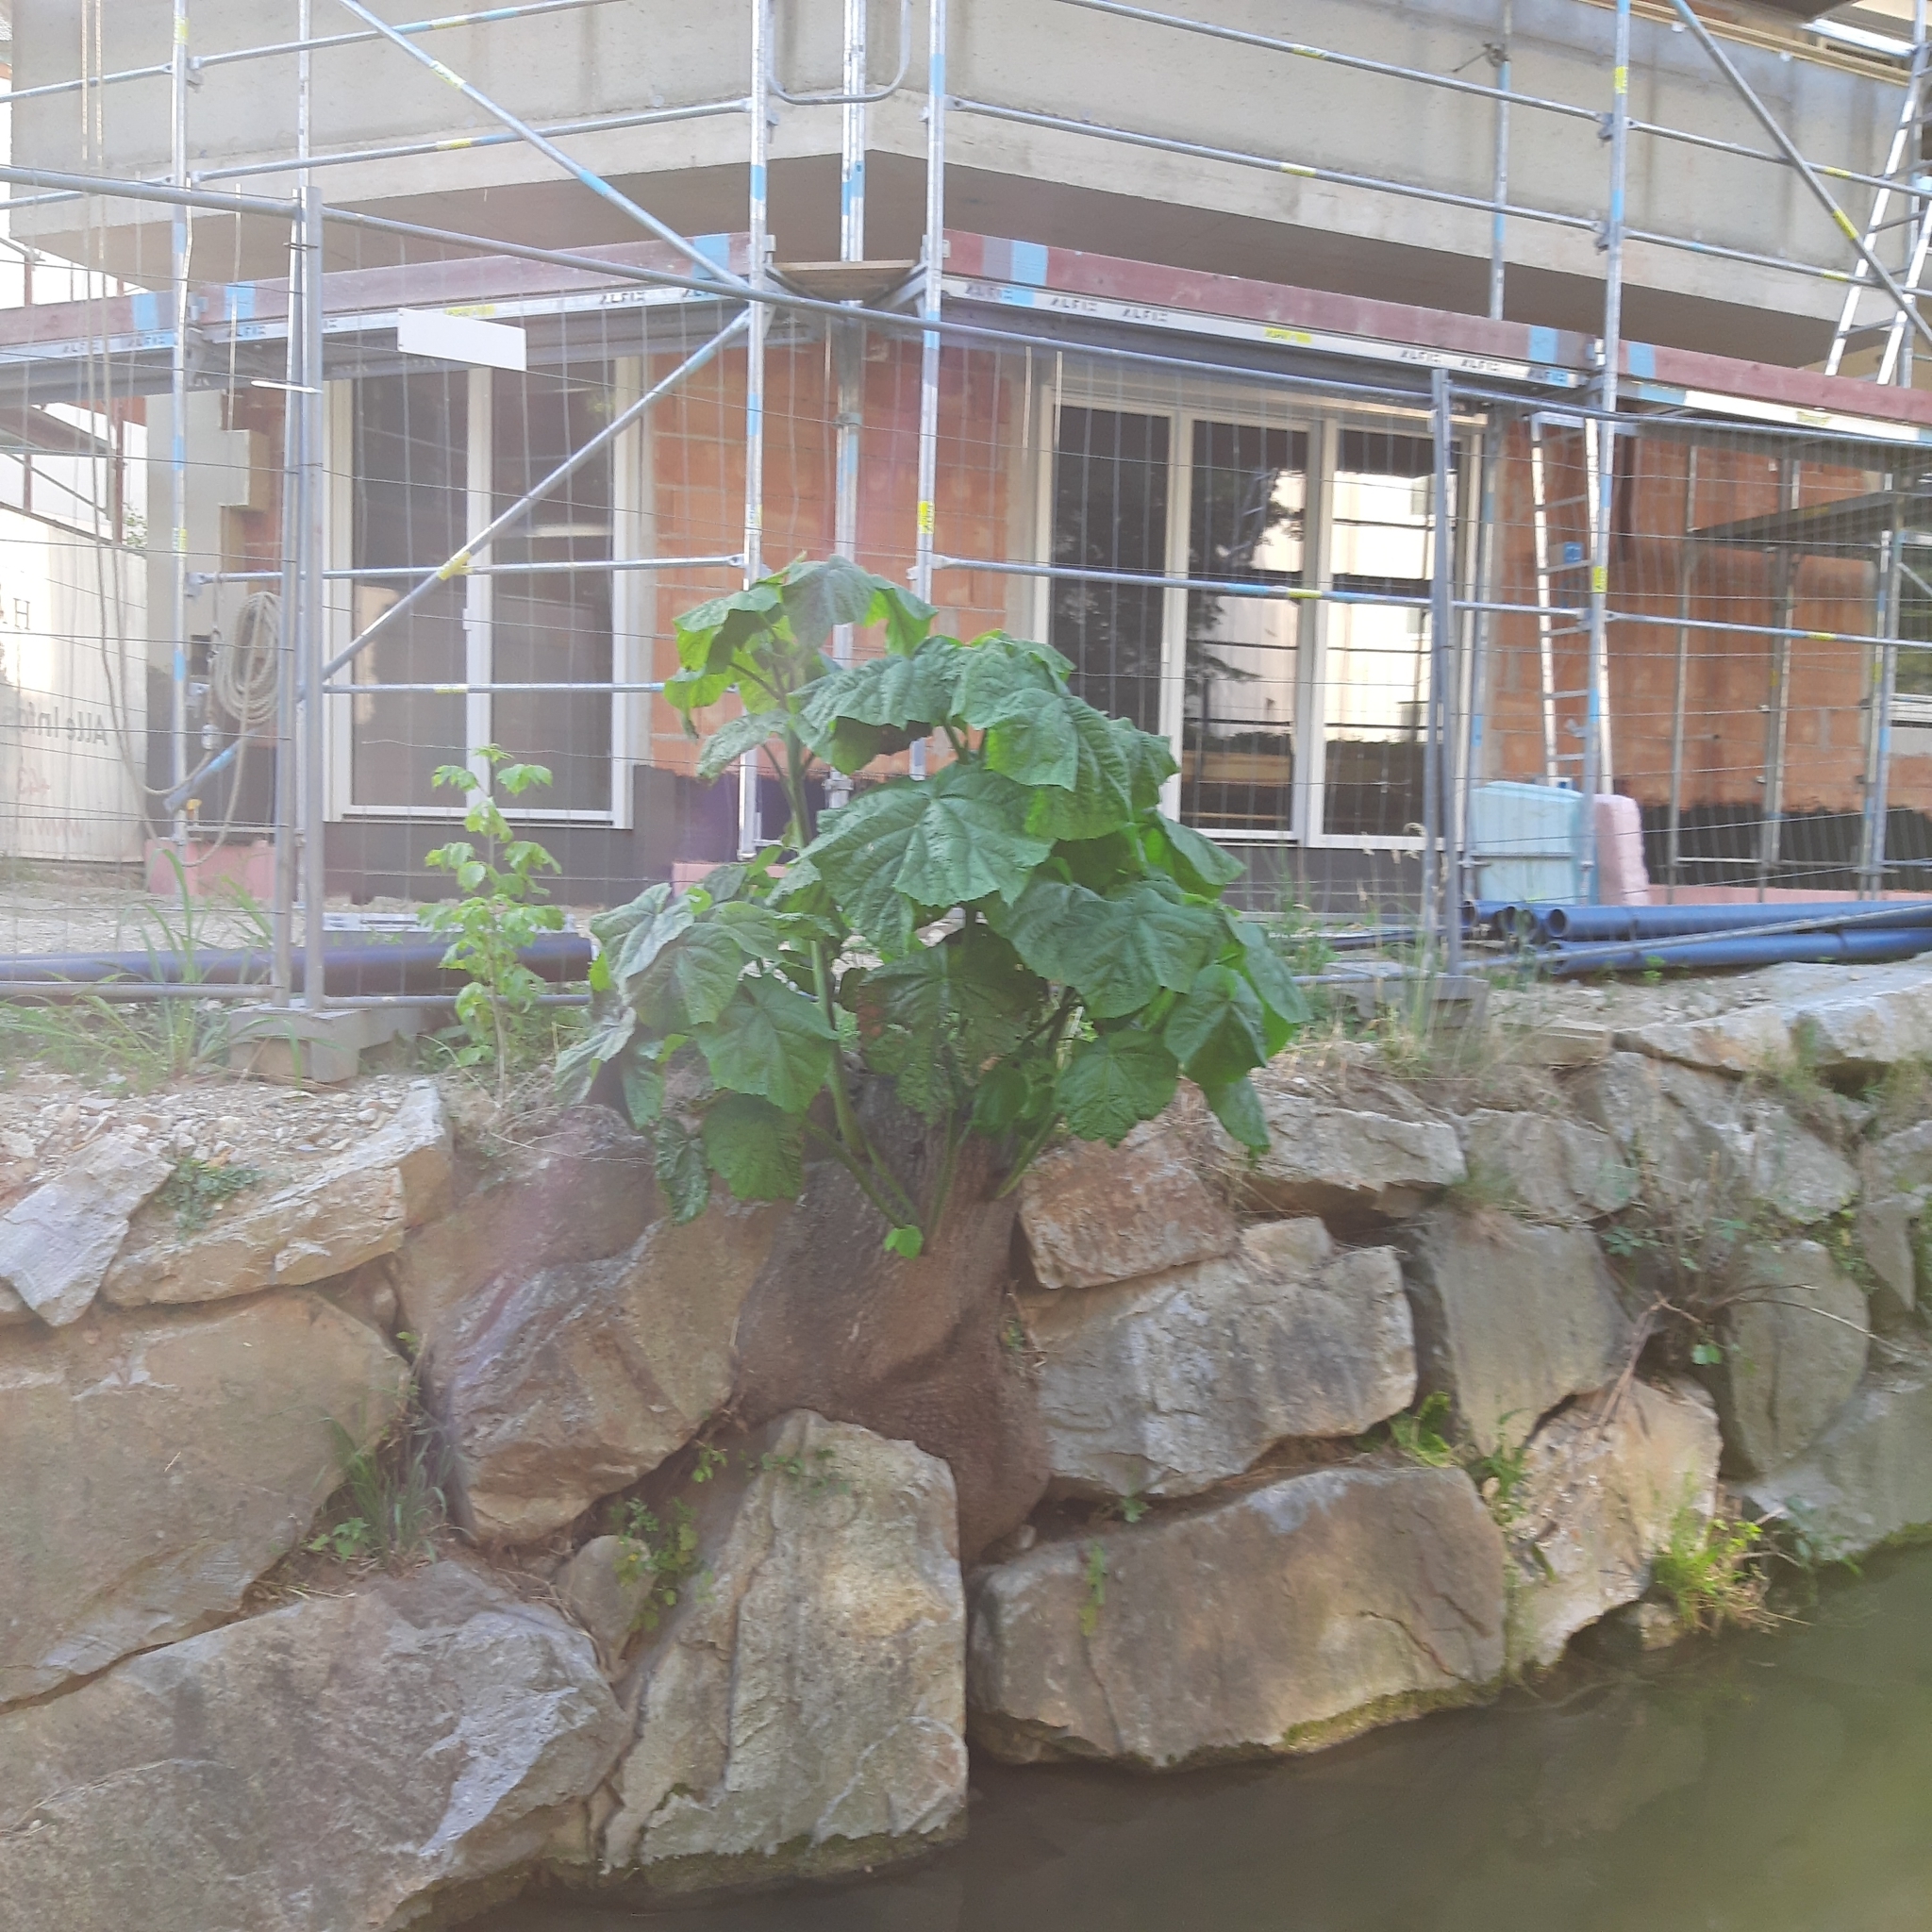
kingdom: Plantae
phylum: Tracheophyta
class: Magnoliopsida
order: Lamiales
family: Paulowniaceae
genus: Paulownia
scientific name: Paulownia tomentosa
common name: Foxglove-tree
